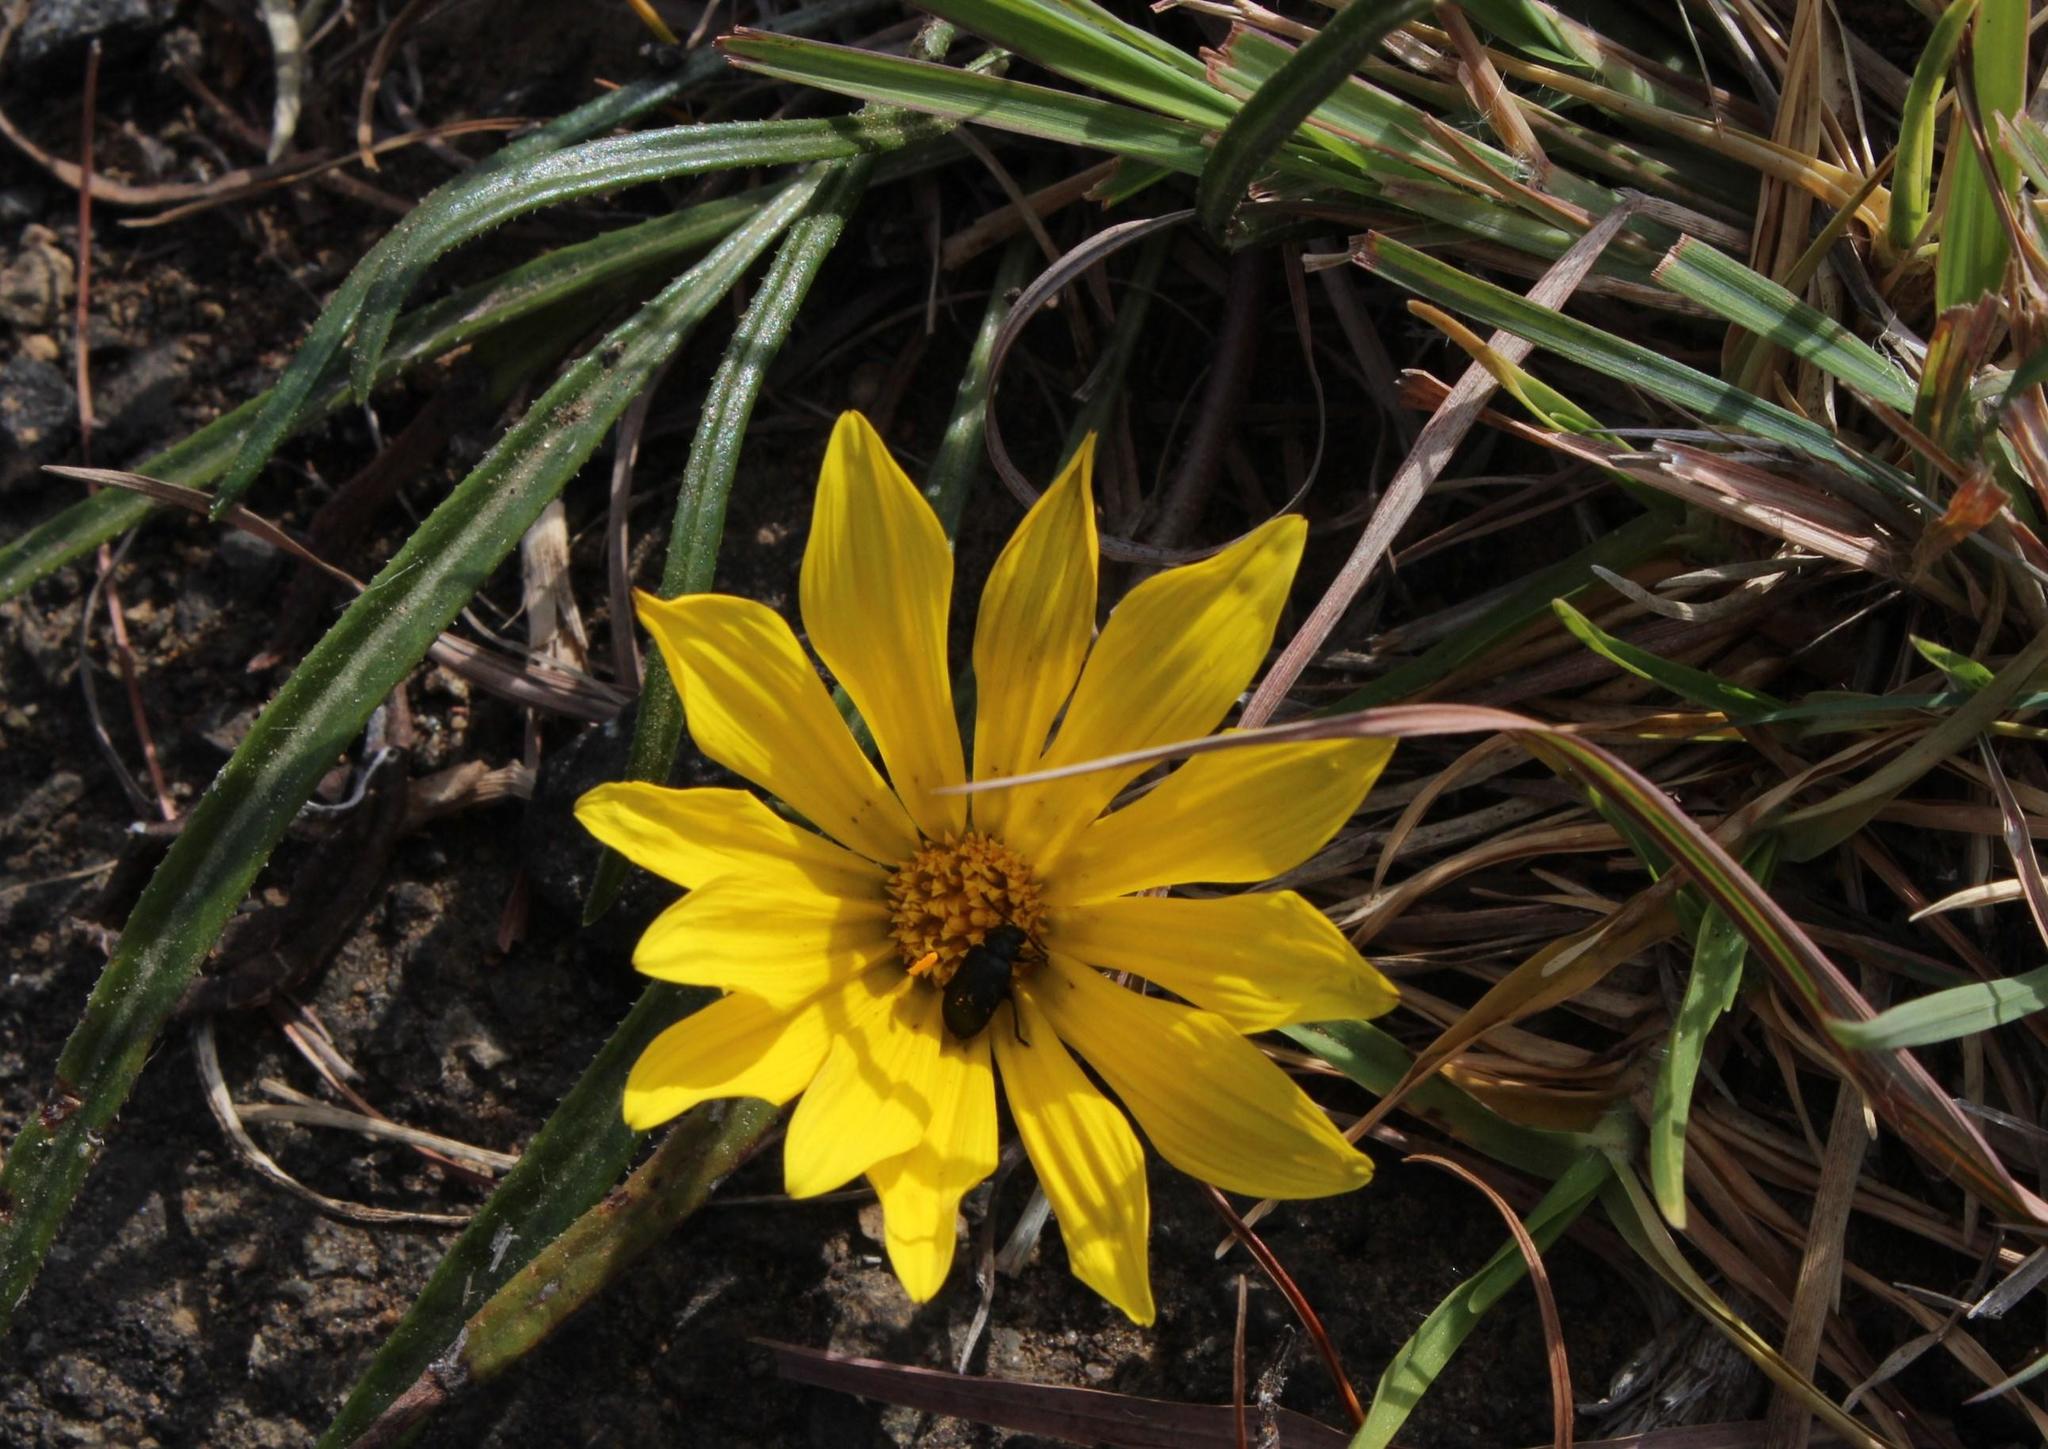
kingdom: Plantae
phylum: Tracheophyta
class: Magnoliopsida
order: Asterales
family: Asteraceae
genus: Gazania
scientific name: Gazania krebsiana
